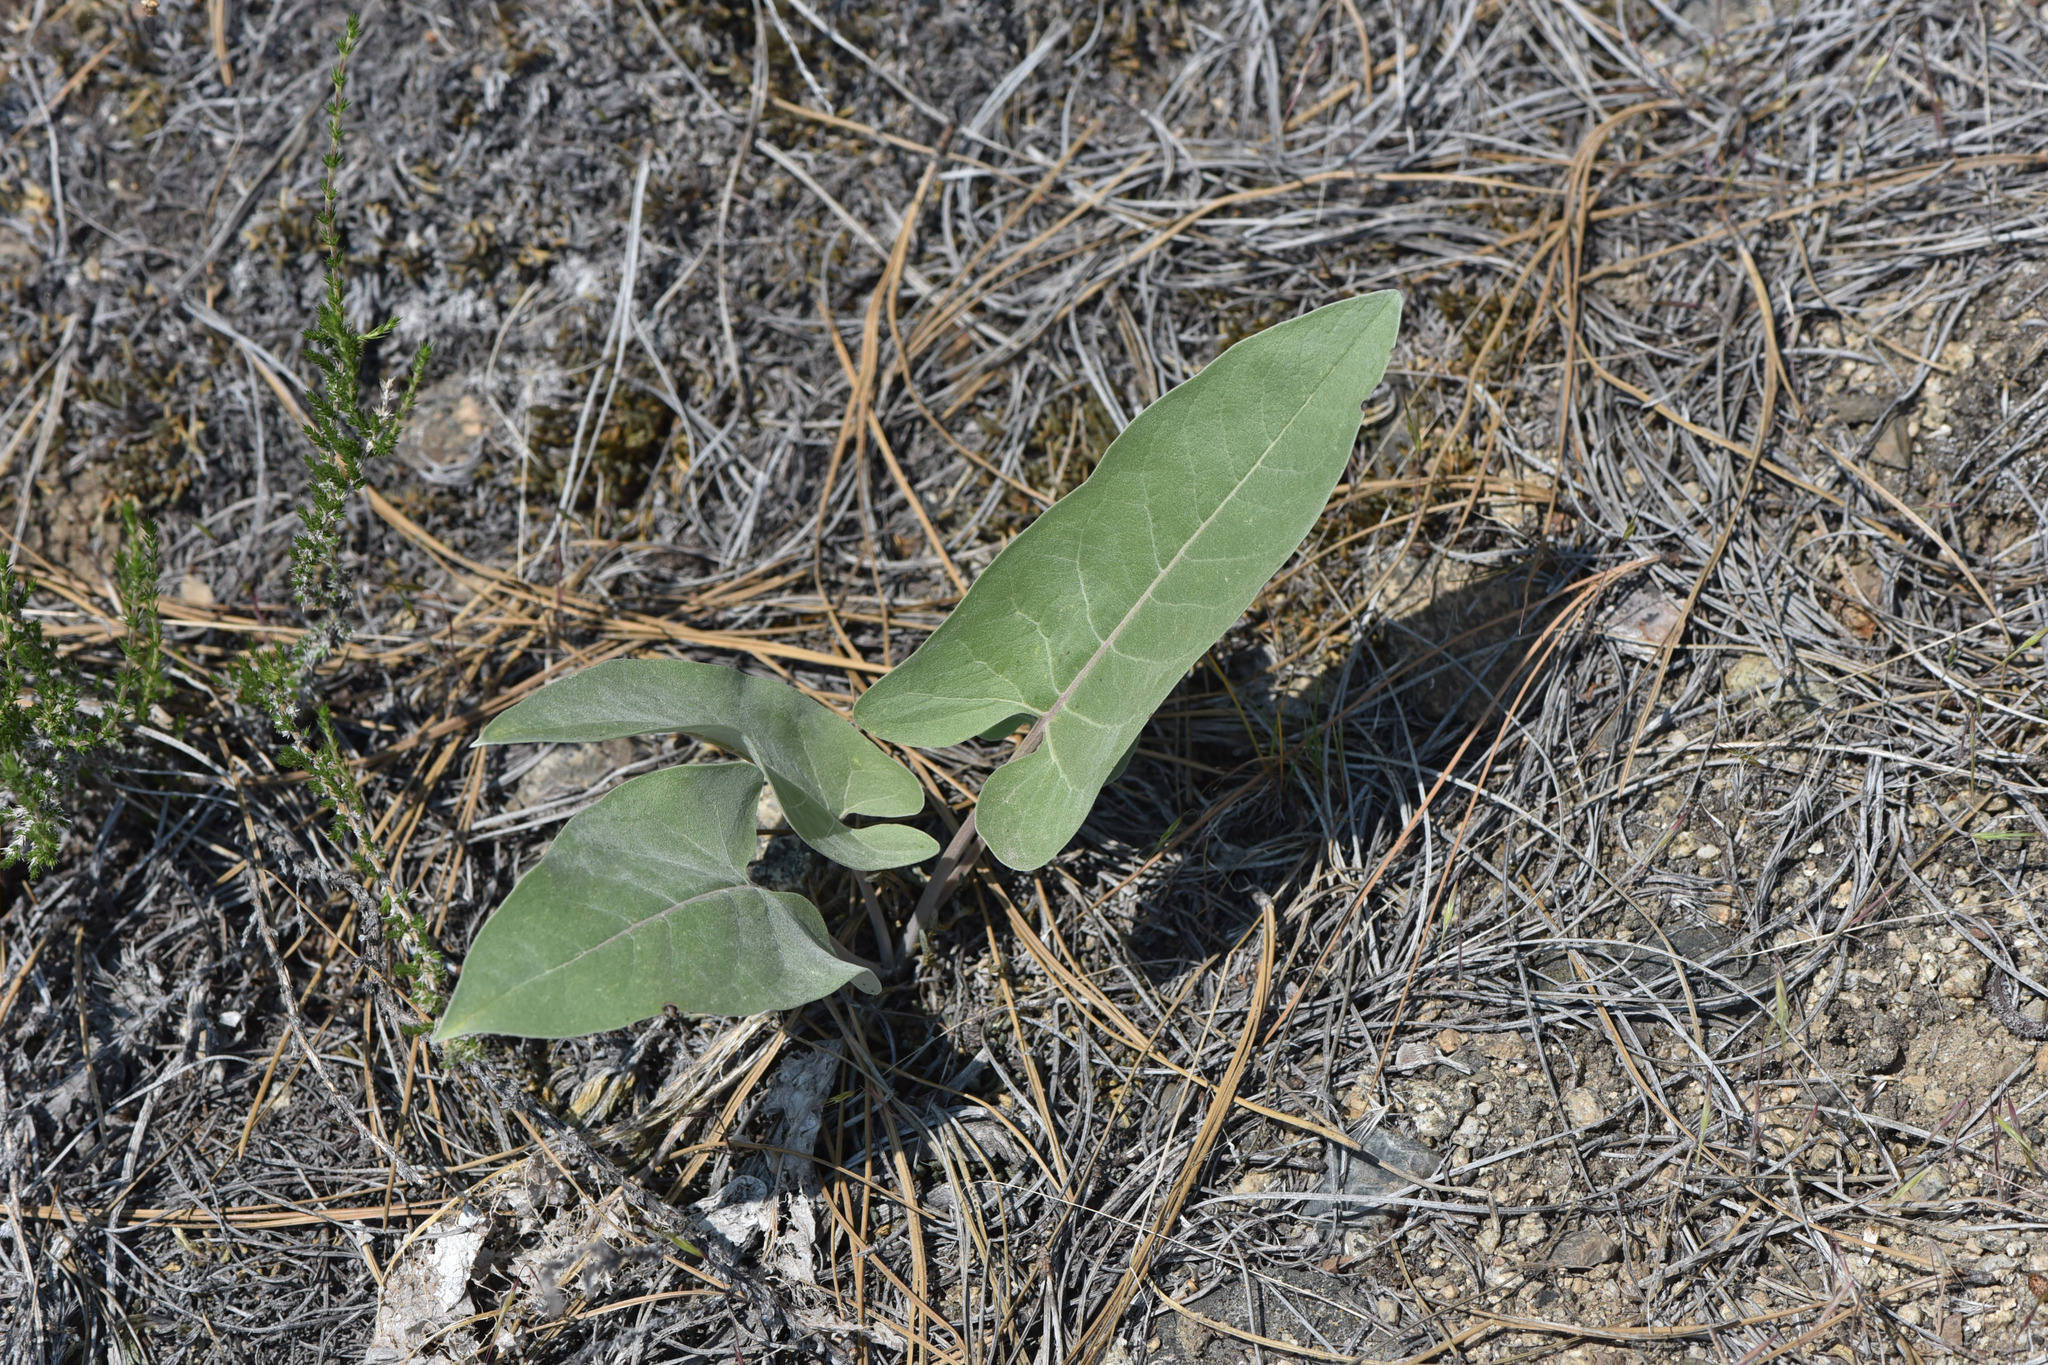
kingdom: Plantae
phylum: Tracheophyta
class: Magnoliopsida
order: Asterales
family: Asteraceae
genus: Wyethia
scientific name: Wyethia sagittata
